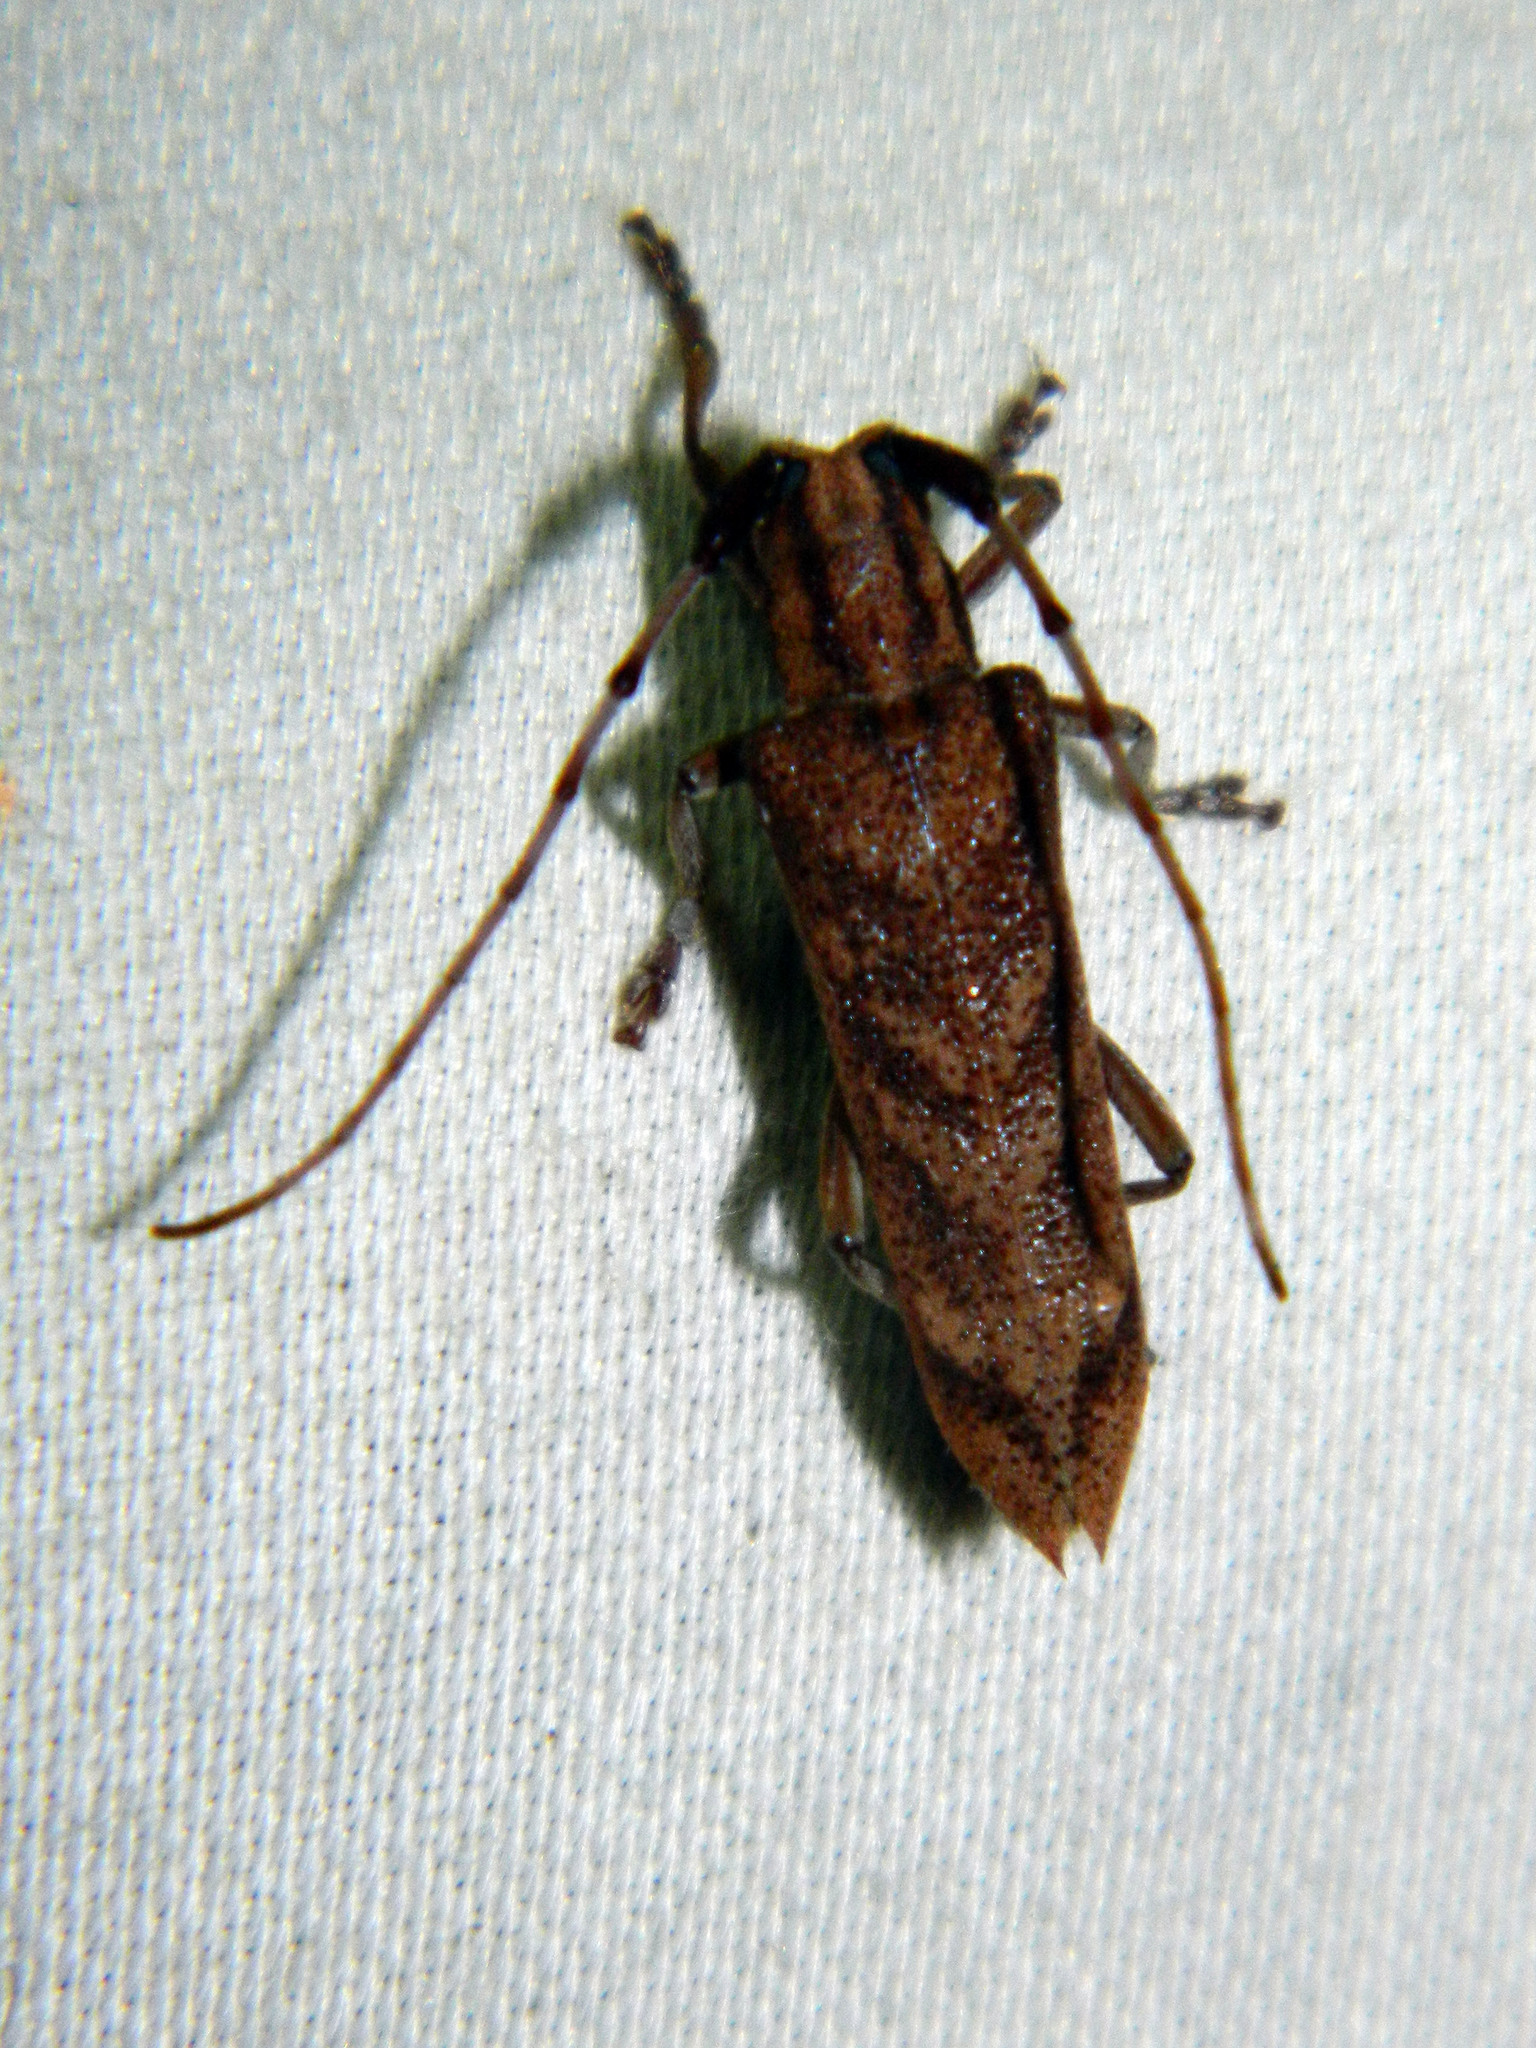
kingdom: Animalia
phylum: Arthropoda
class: Insecta
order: Coleoptera
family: Cerambycidae
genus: Saperda
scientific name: Saperda obliqua
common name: Alder borer
